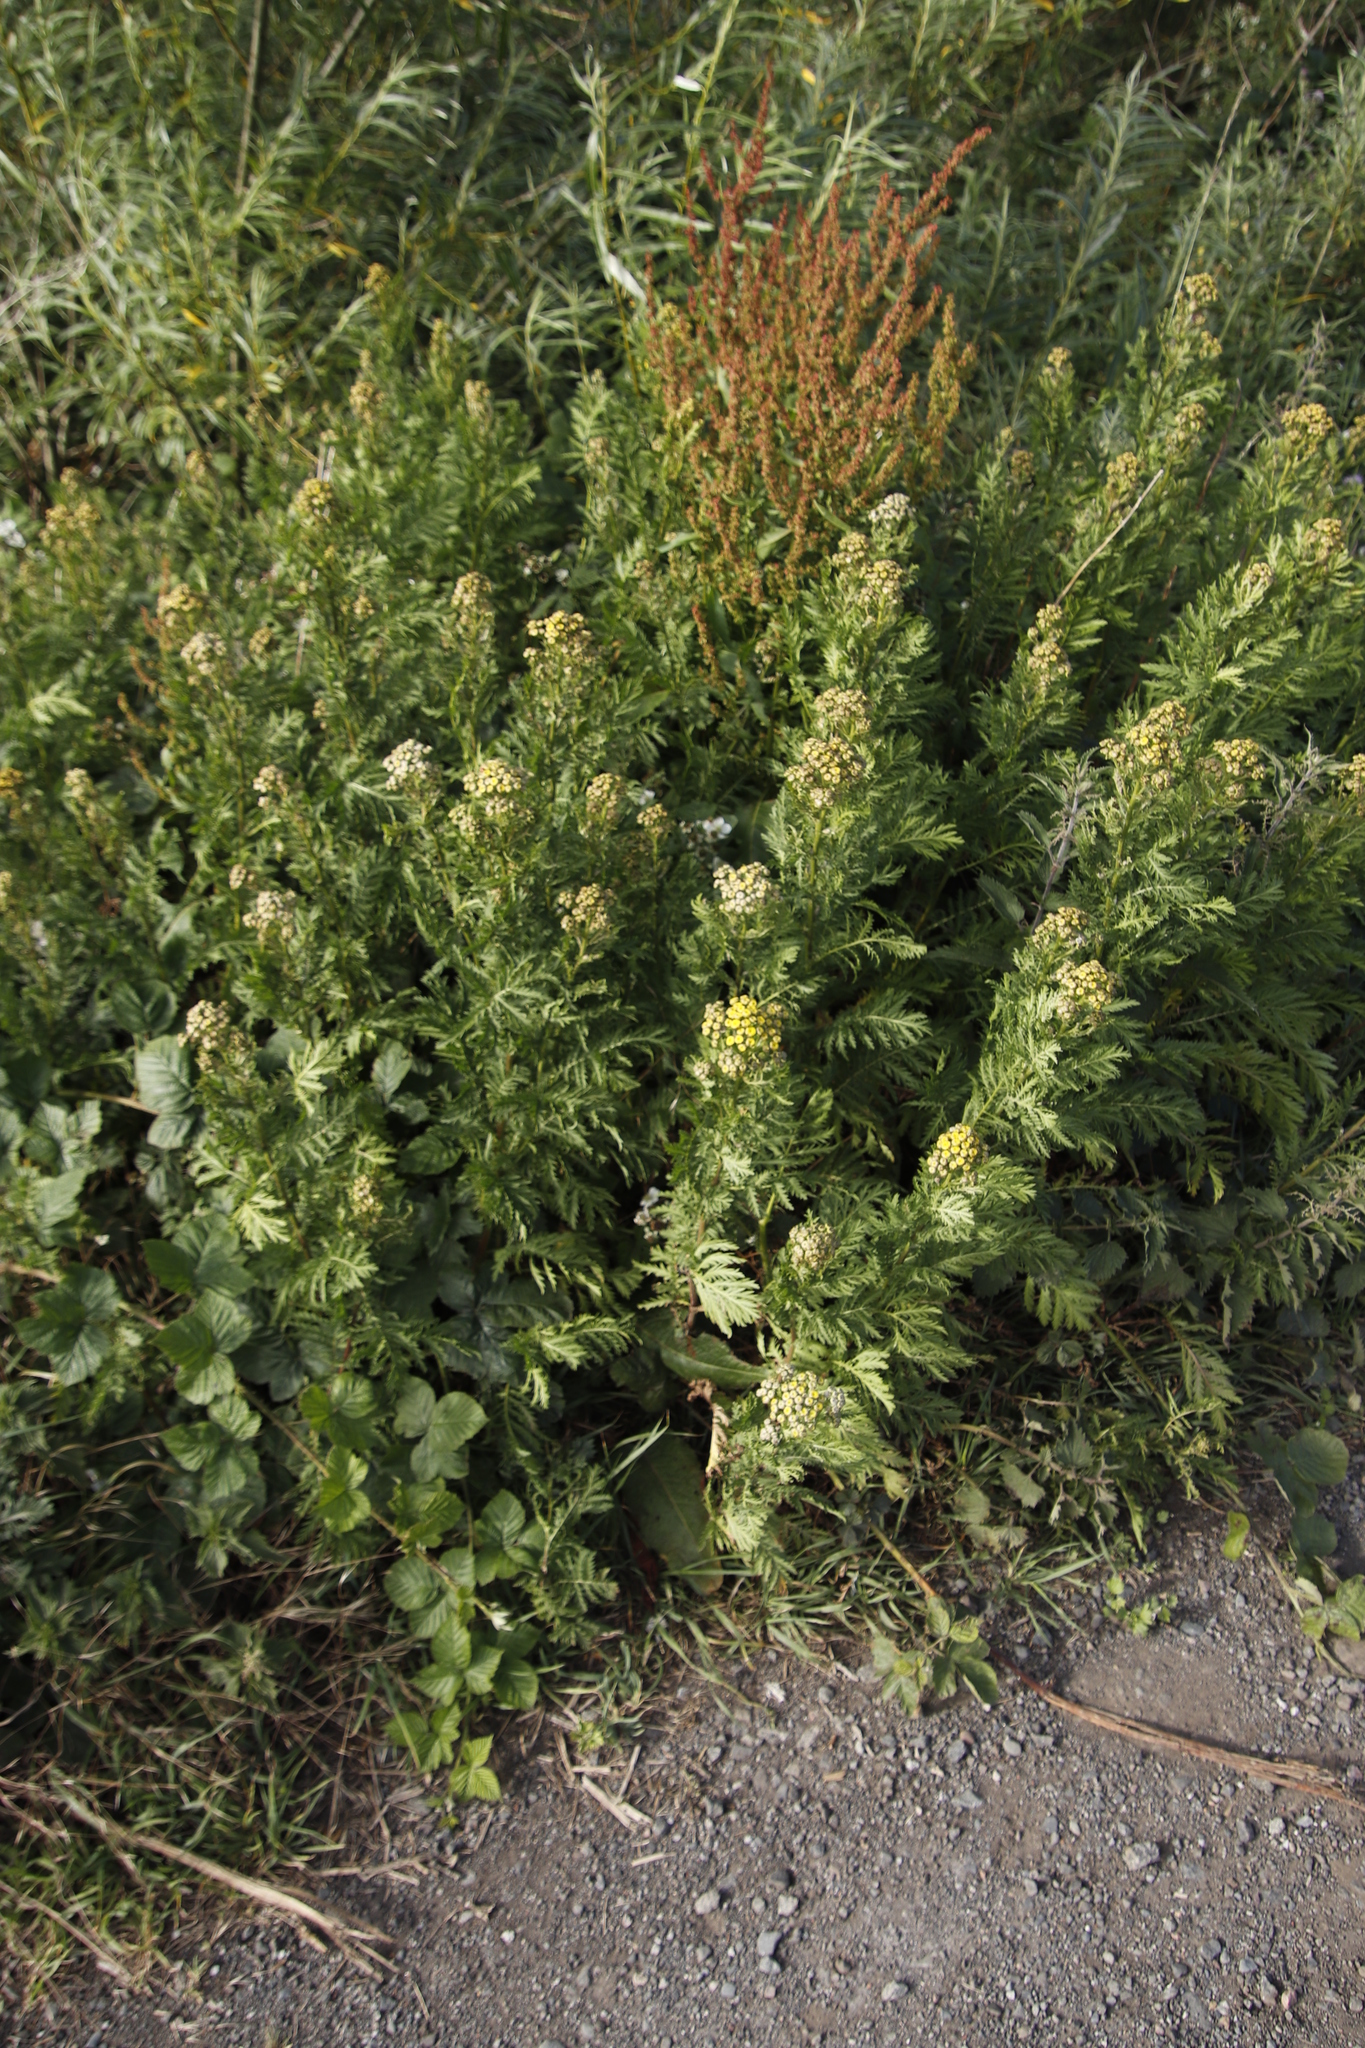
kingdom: Plantae
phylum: Tracheophyta
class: Magnoliopsida
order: Asterales
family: Asteraceae
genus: Tanacetum
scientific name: Tanacetum vulgare
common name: Common tansy
